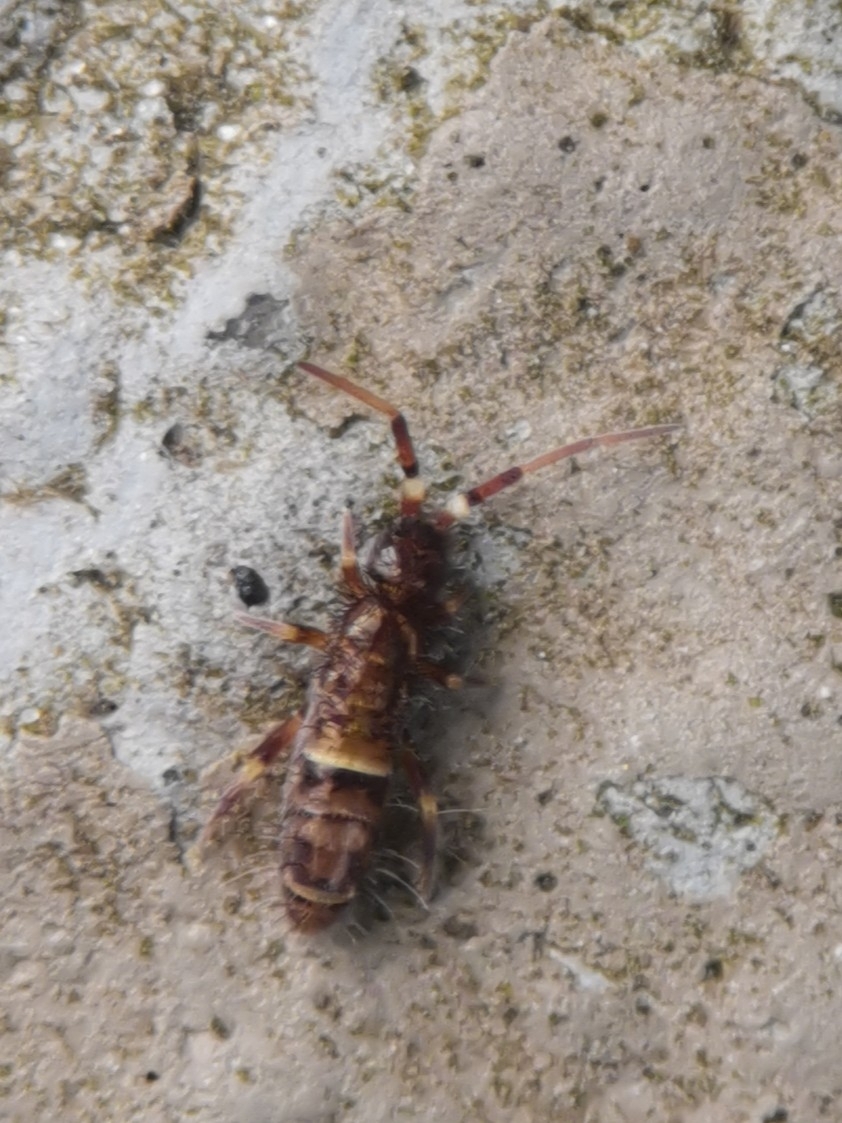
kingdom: Animalia
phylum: Arthropoda
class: Collembola
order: Entomobryomorpha
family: Orchesellidae
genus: Orchesella
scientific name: Orchesella cincta
